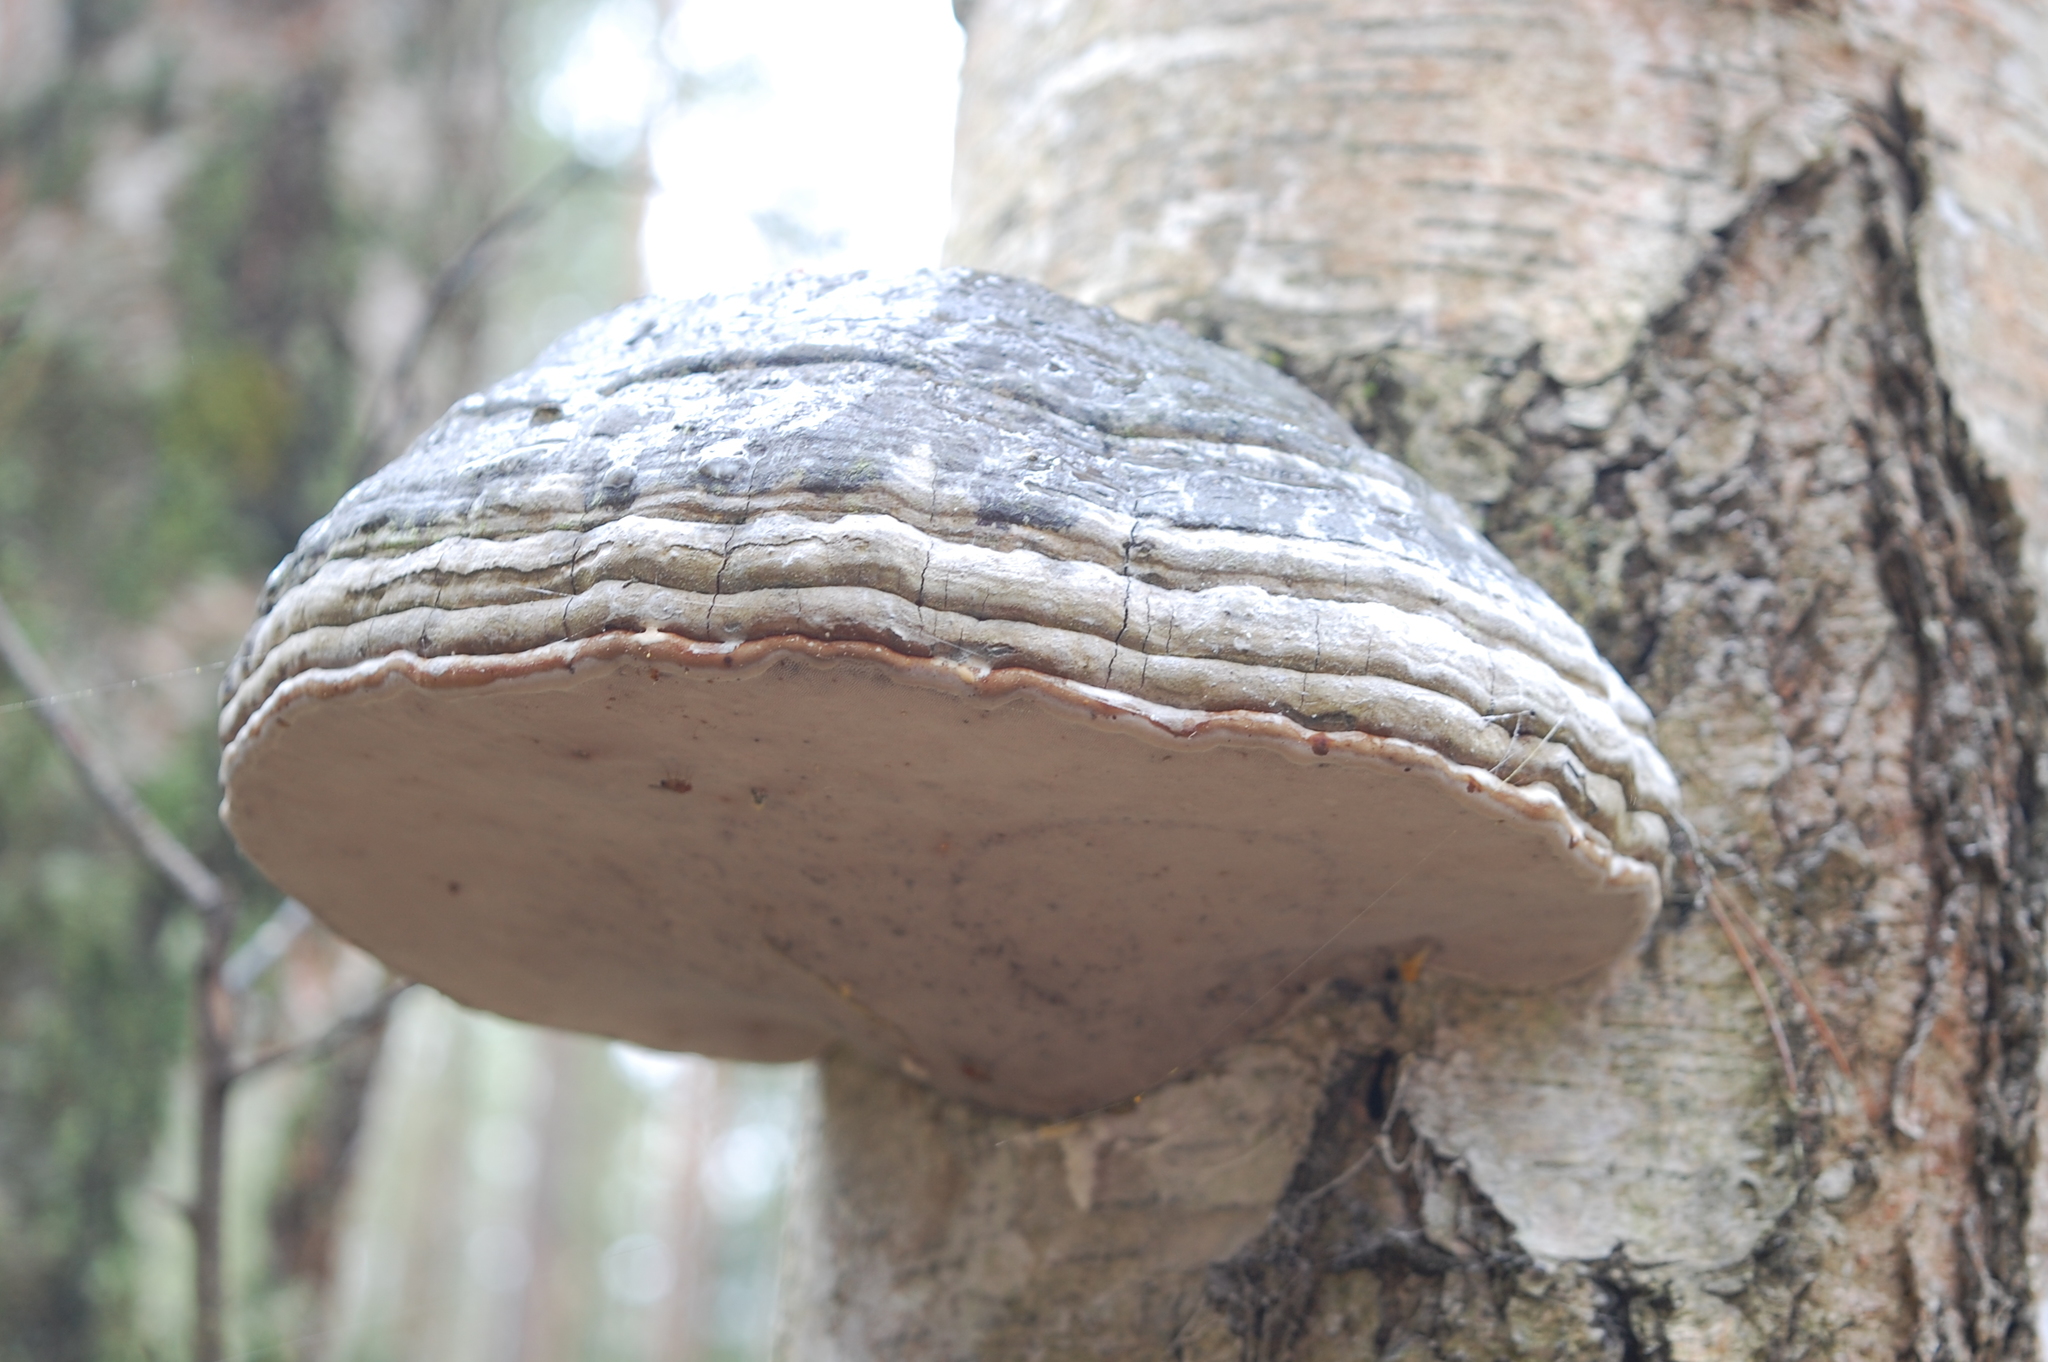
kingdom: Fungi
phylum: Basidiomycota
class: Agaricomycetes
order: Polyporales
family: Polyporaceae
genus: Fomes
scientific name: Fomes fomentarius
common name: Hoof fungus
